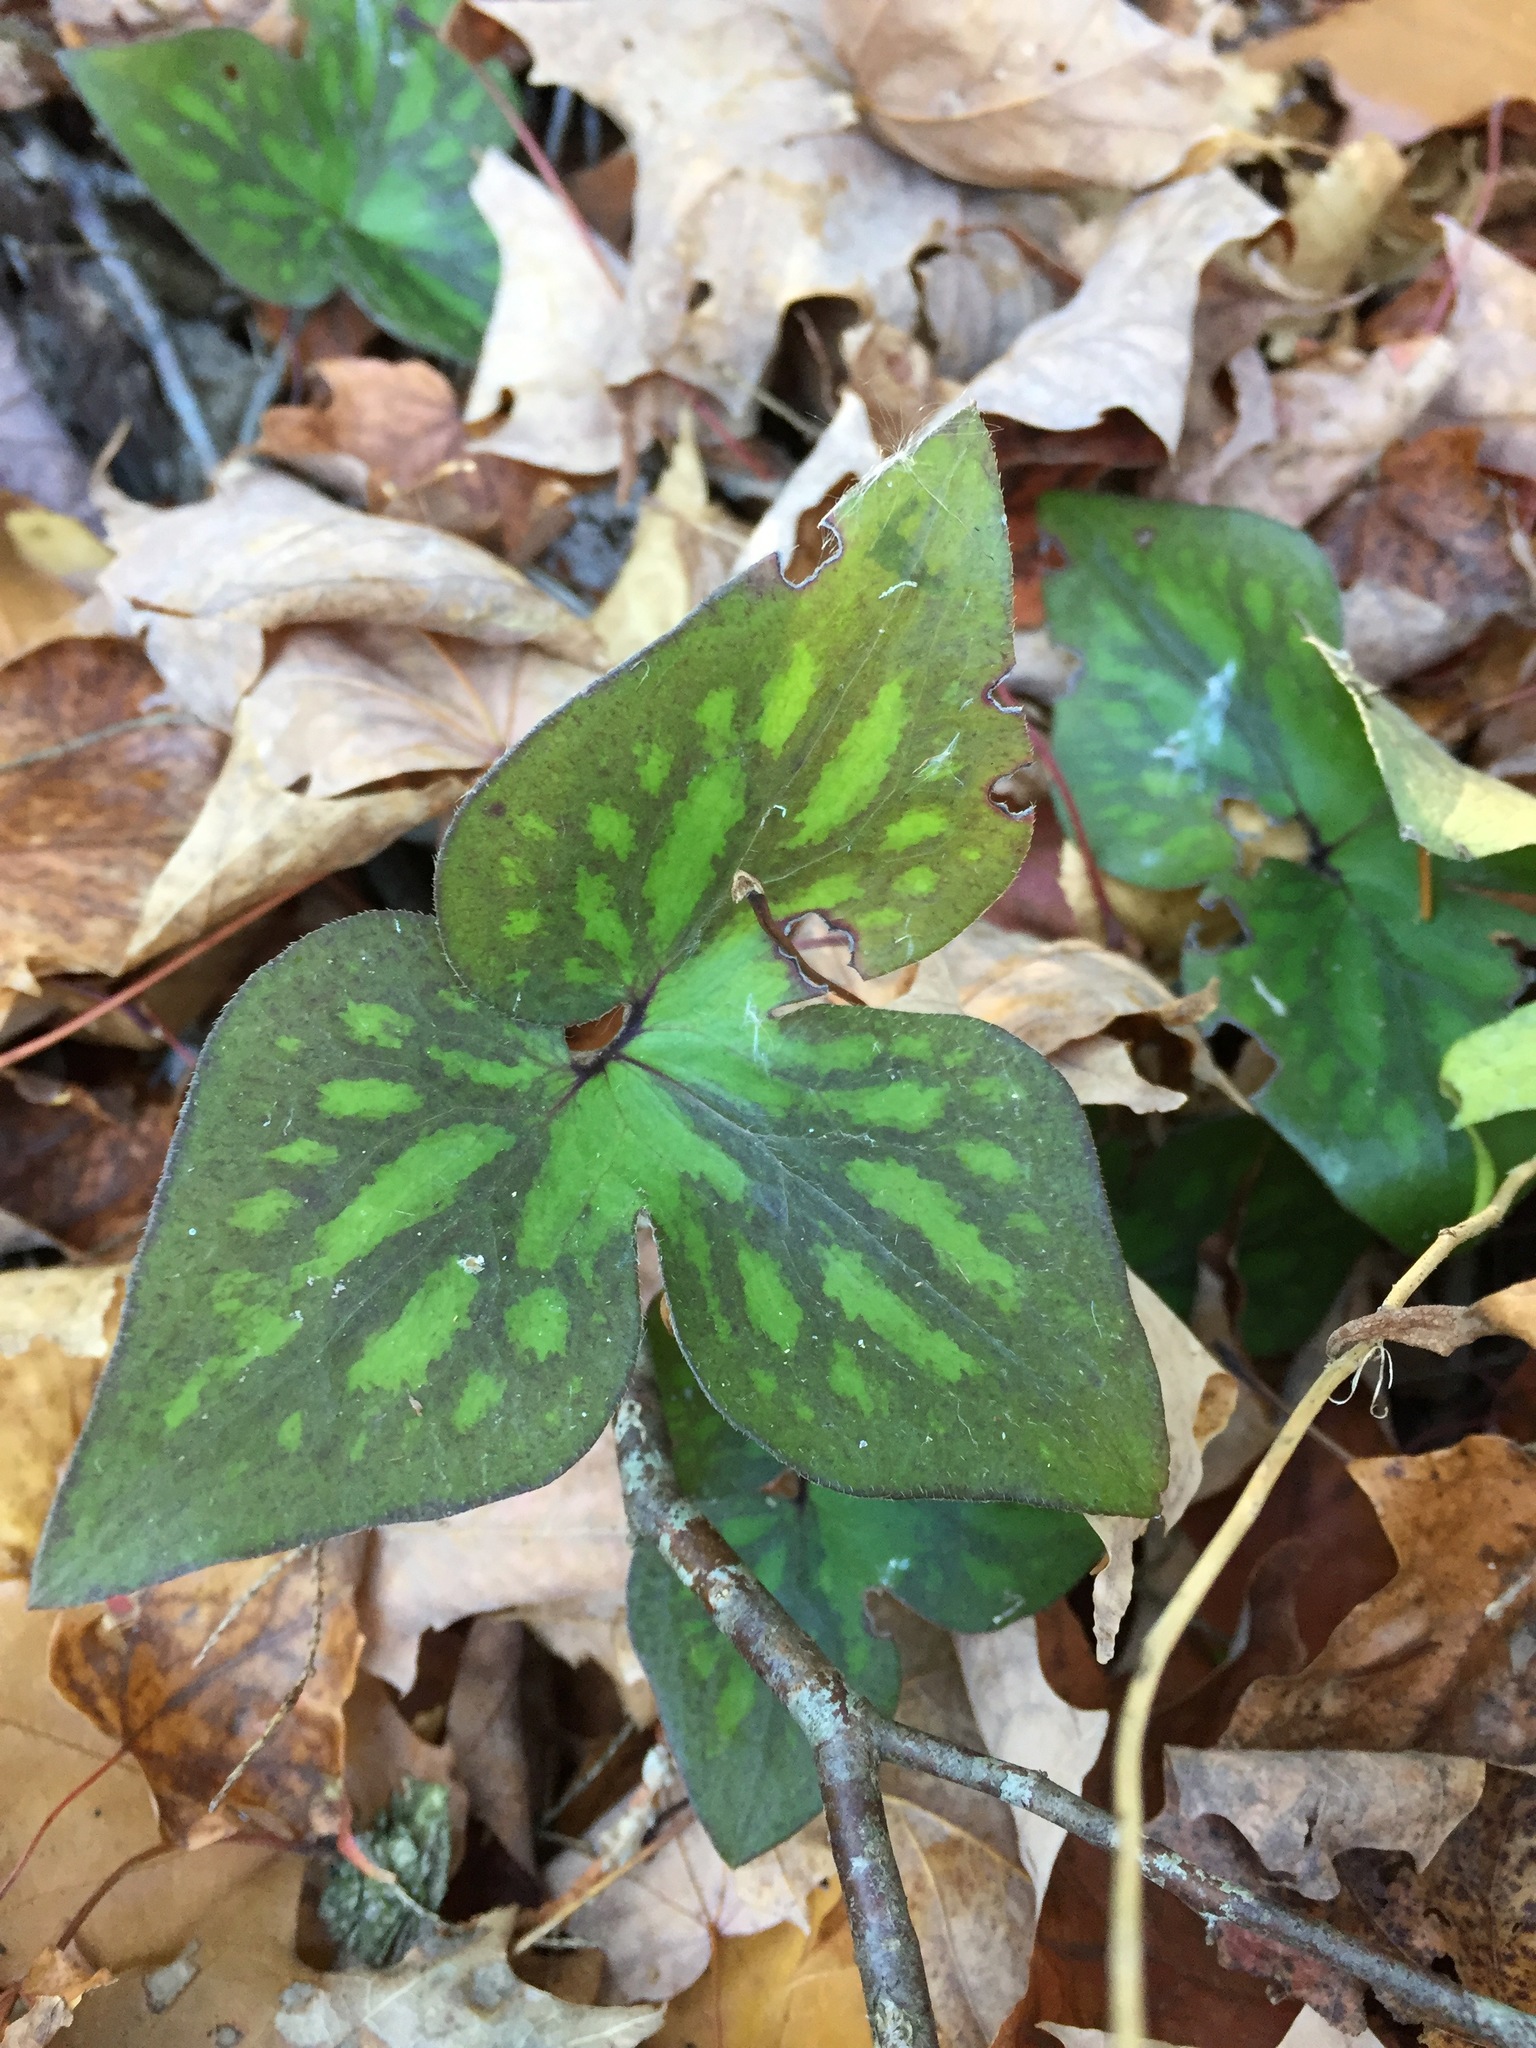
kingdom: Plantae
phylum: Tracheophyta
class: Magnoliopsida
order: Ranunculales
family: Ranunculaceae
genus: Hepatica
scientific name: Hepatica acutiloba
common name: Sharp-lobed hepatica
